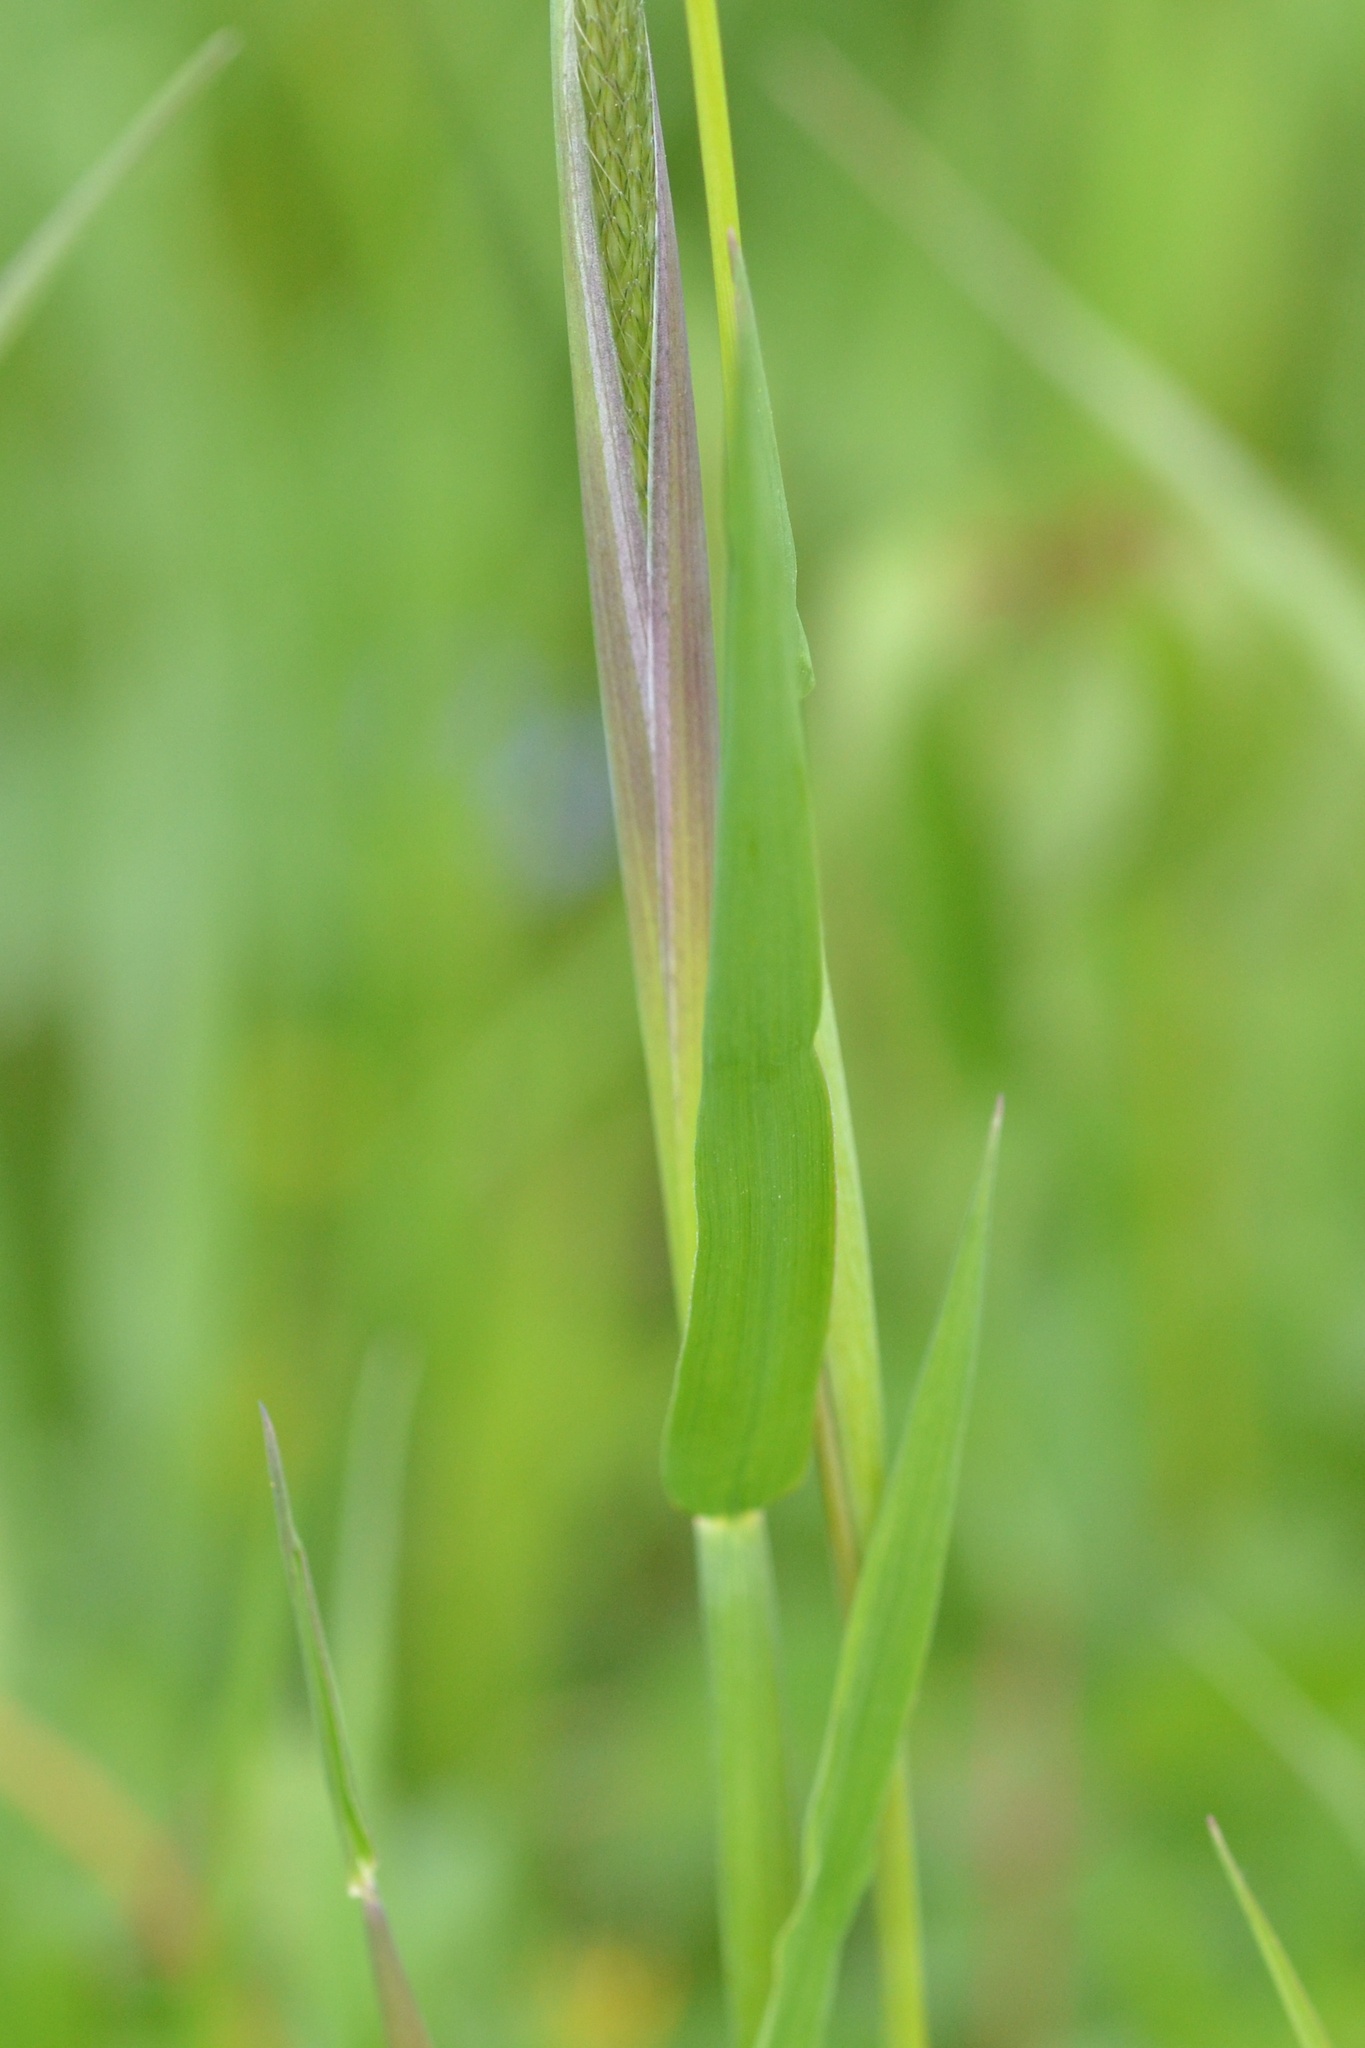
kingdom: Plantae
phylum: Tracheophyta
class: Liliopsida
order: Poales
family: Poaceae
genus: Alopecurus
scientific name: Alopecurus pratensis
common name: Meadow foxtail
